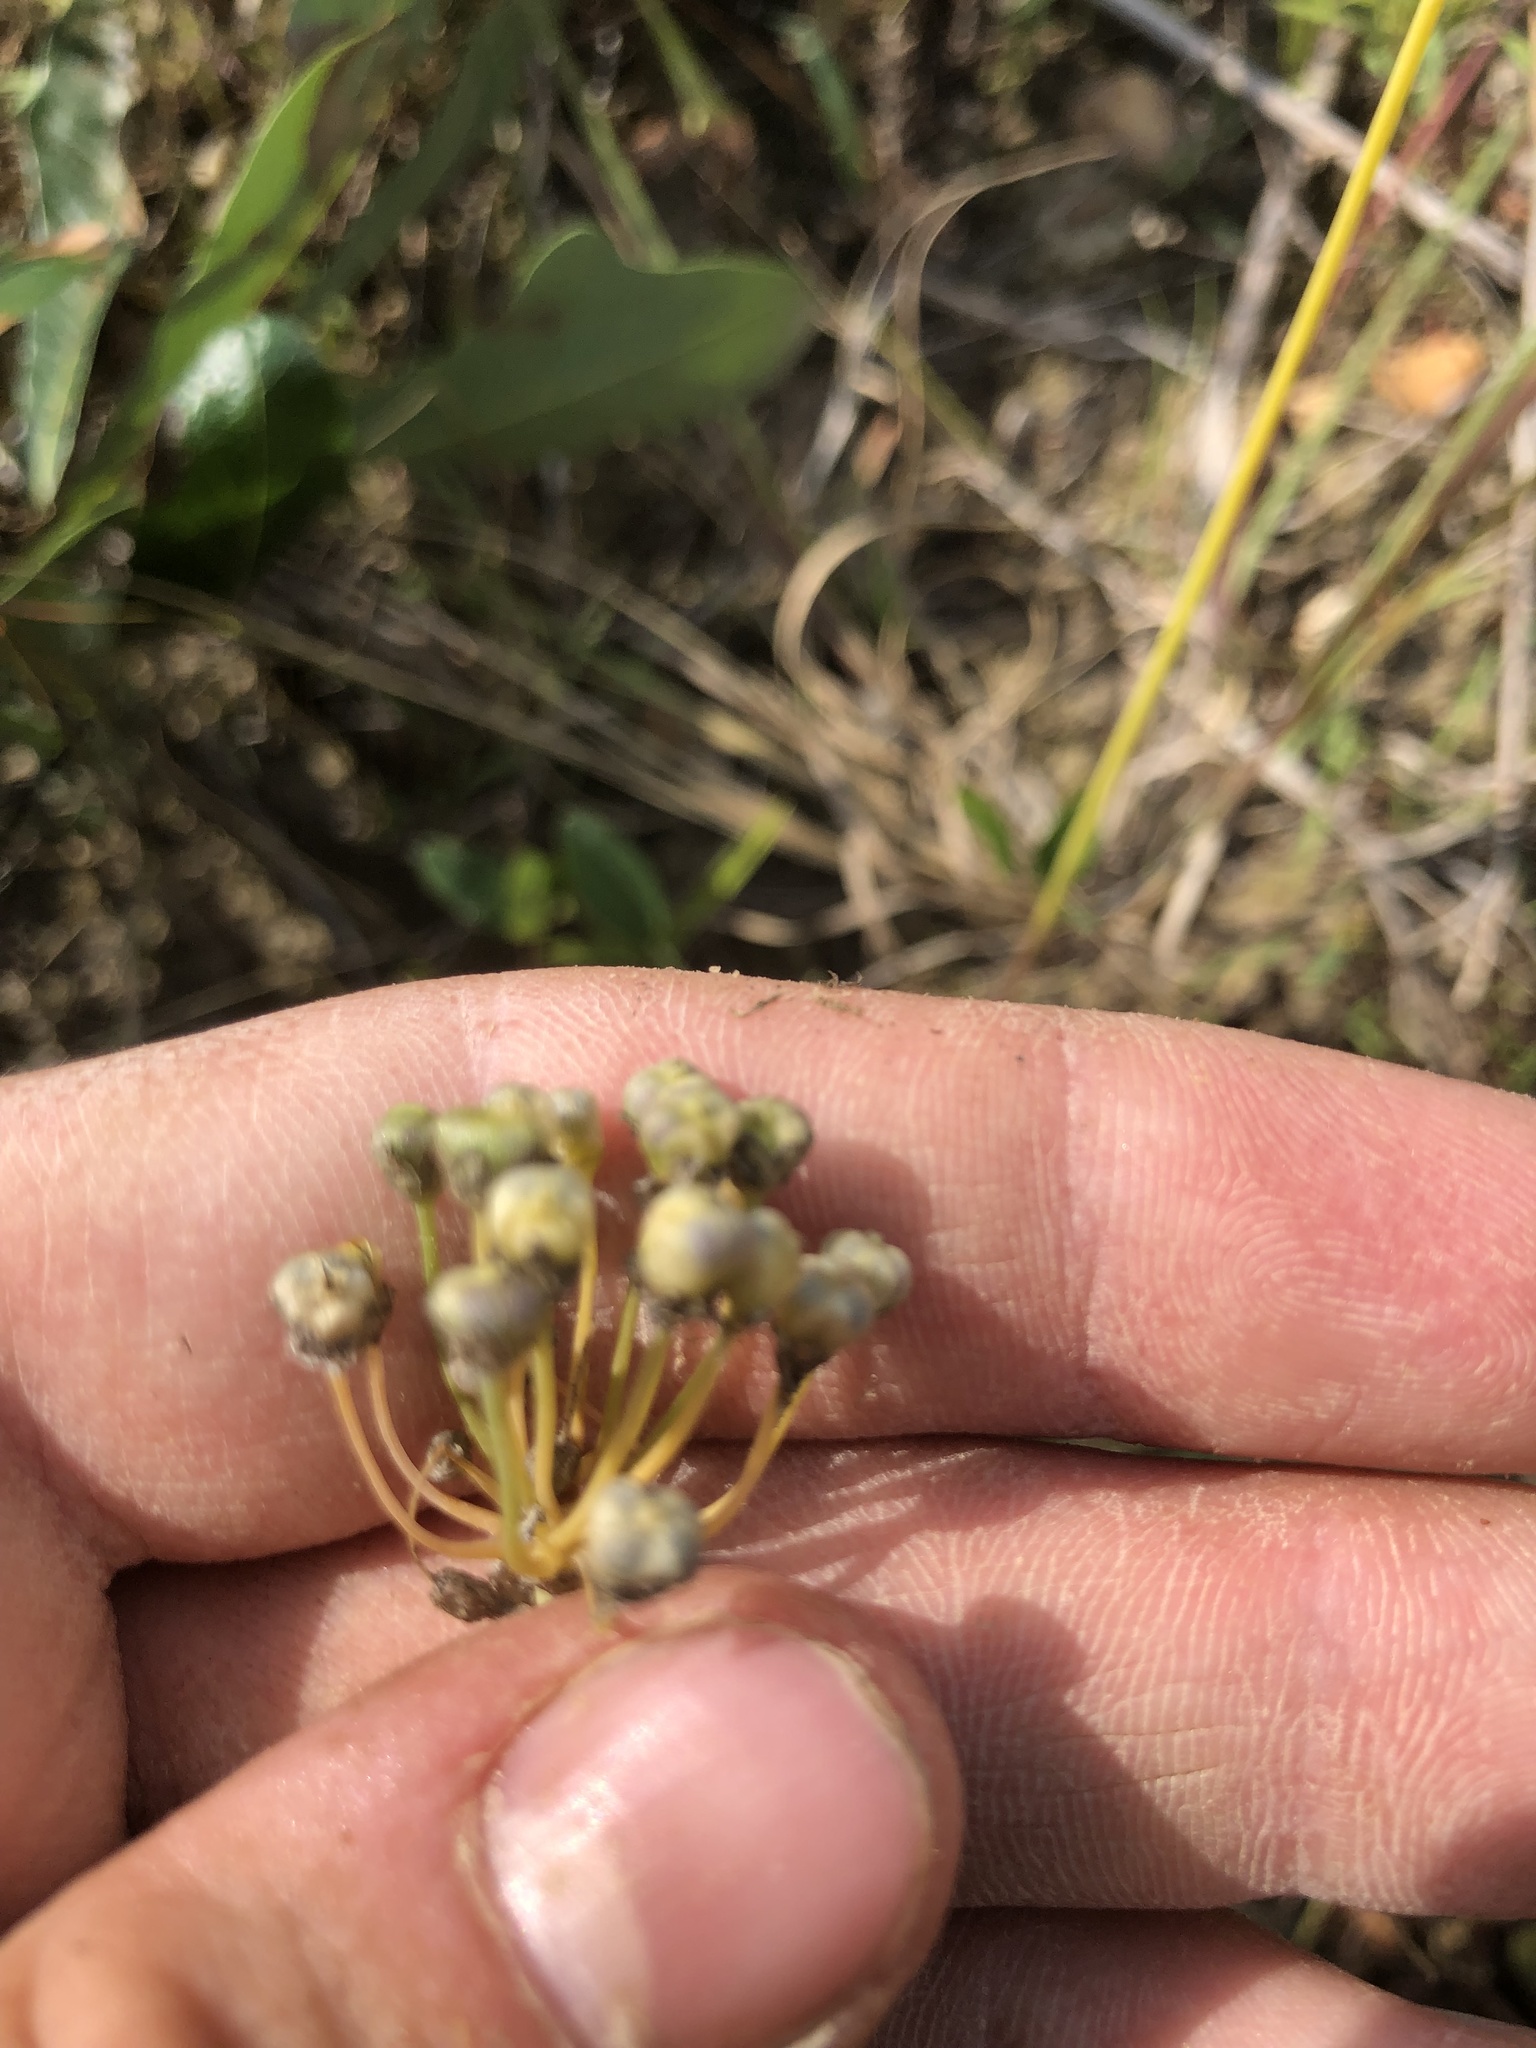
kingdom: Plantae
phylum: Tracheophyta
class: Liliopsida
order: Asparagales
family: Amaryllidaceae
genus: Allium
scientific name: Allium canadense
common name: Meadow garlic
